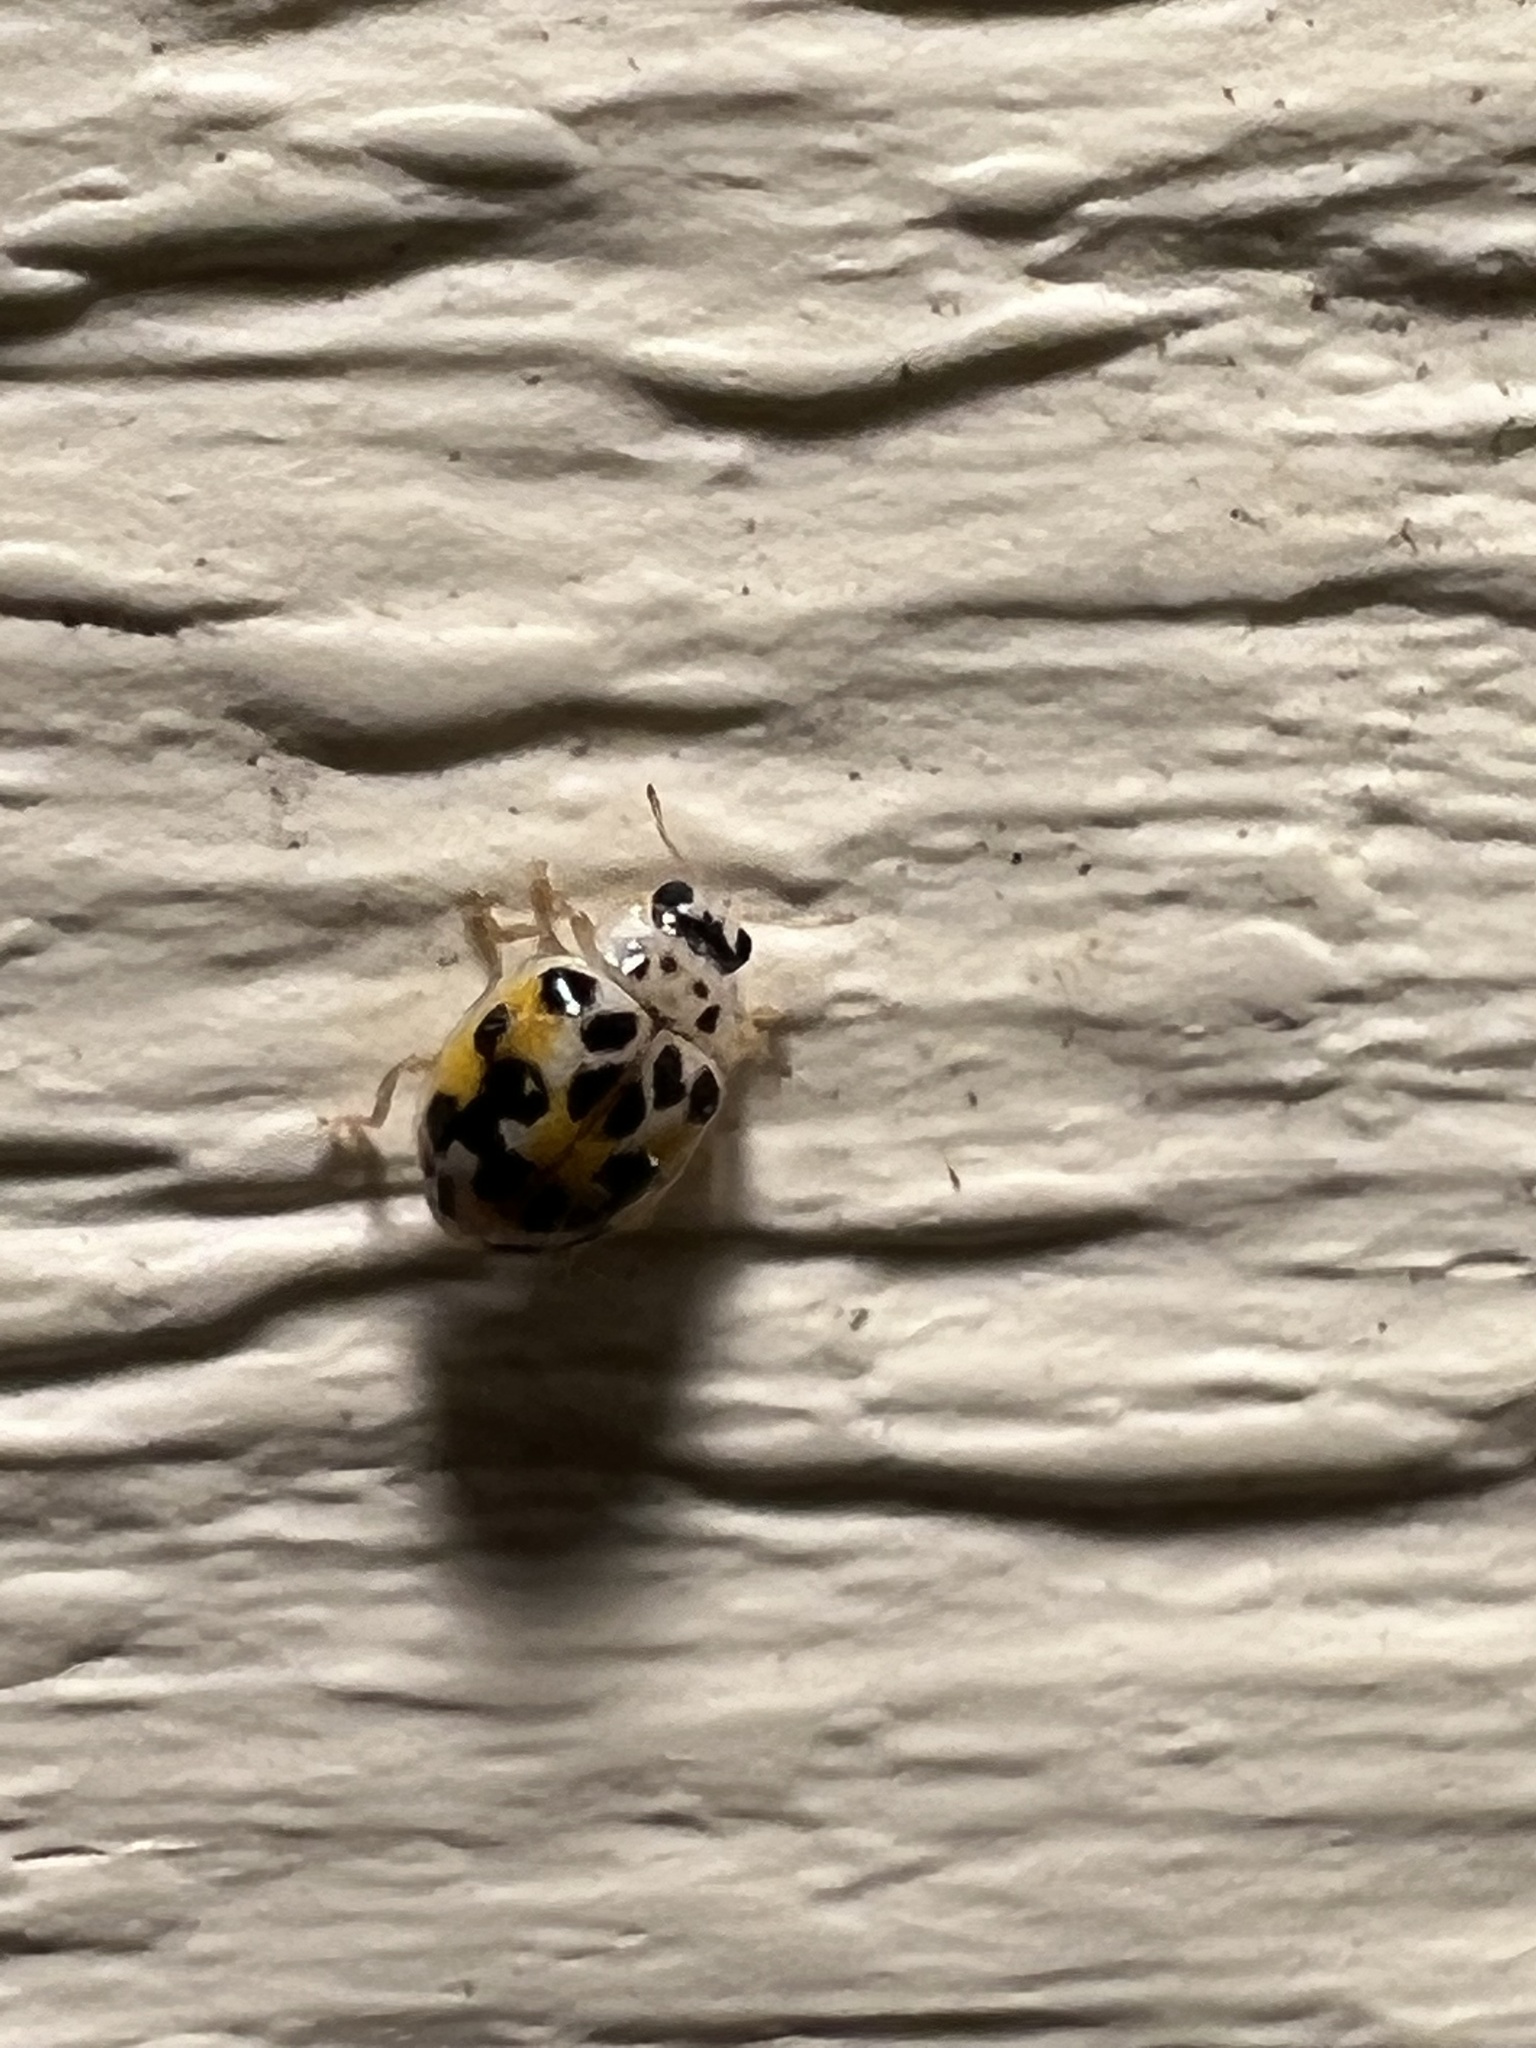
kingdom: Animalia
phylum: Arthropoda
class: Insecta
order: Coleoptera
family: Coccinellidae
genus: Psyllobora
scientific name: Psyllobora vigintimaculata
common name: Ladybird beetle
